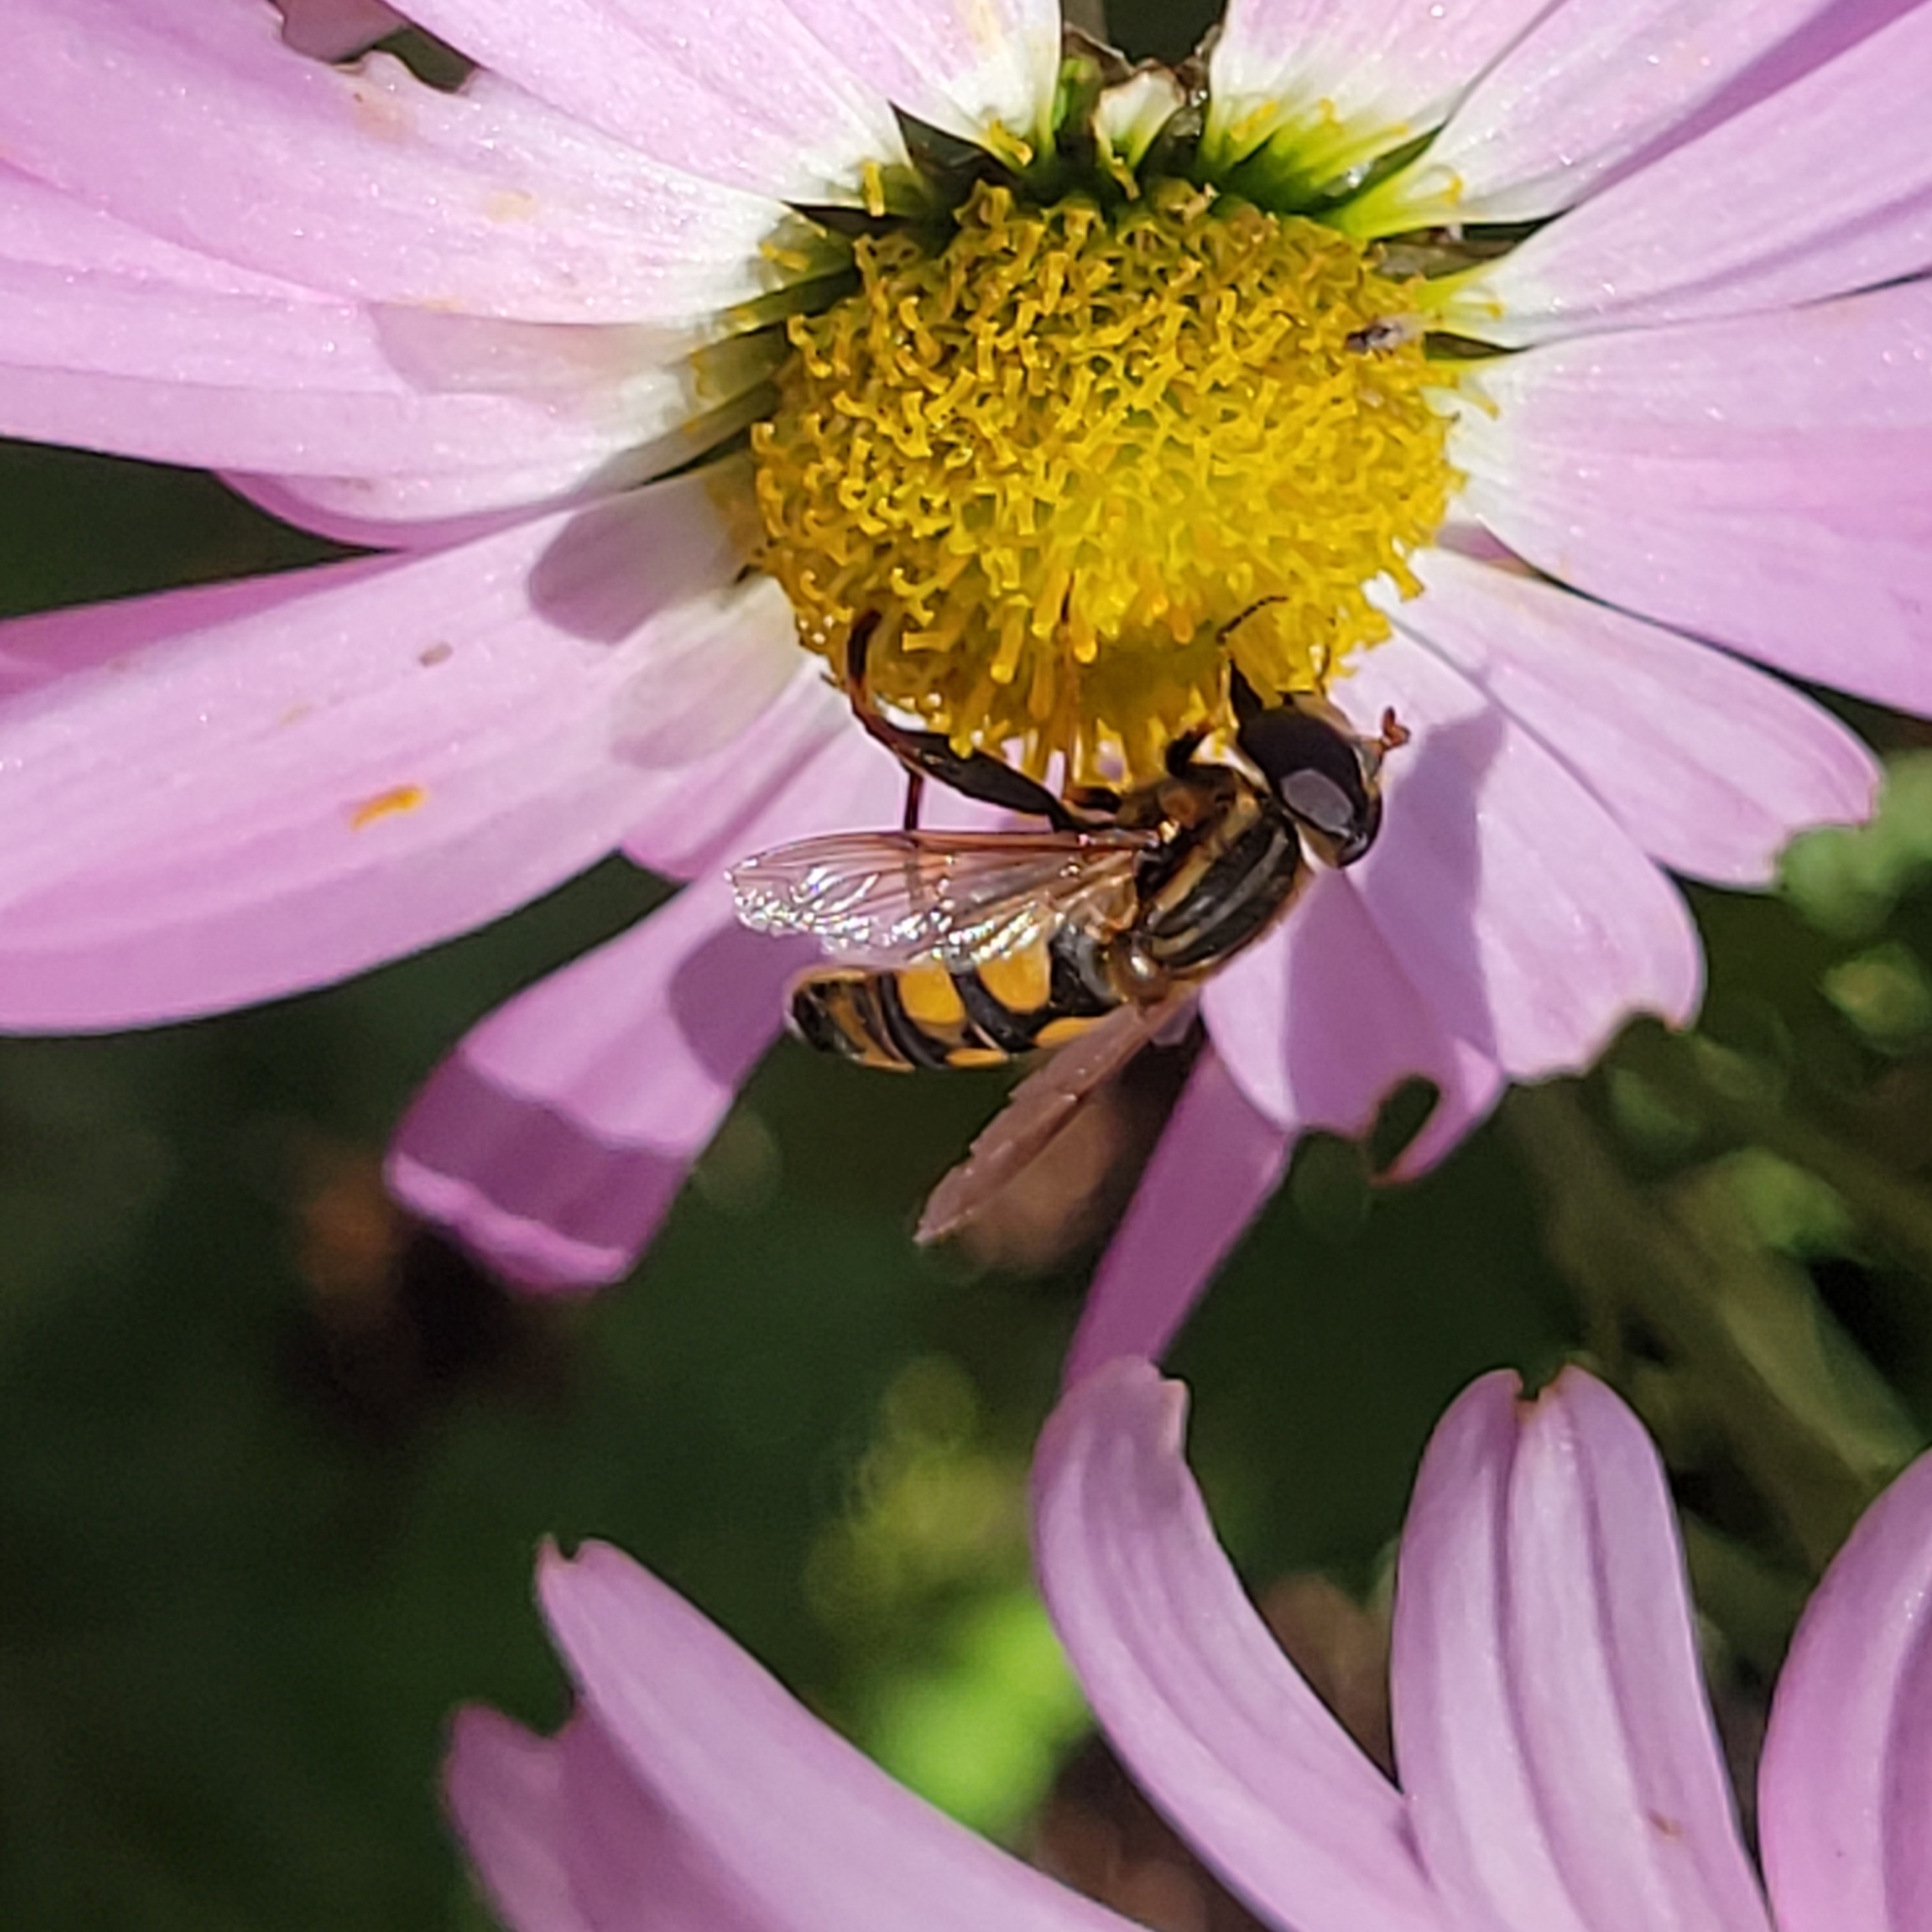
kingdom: Animalia
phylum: Arthropoda
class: Insecta
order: Diptera
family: Syrphidae
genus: Helophilus
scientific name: Helophilus fasciatus
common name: Narrow-headed marsh fly
